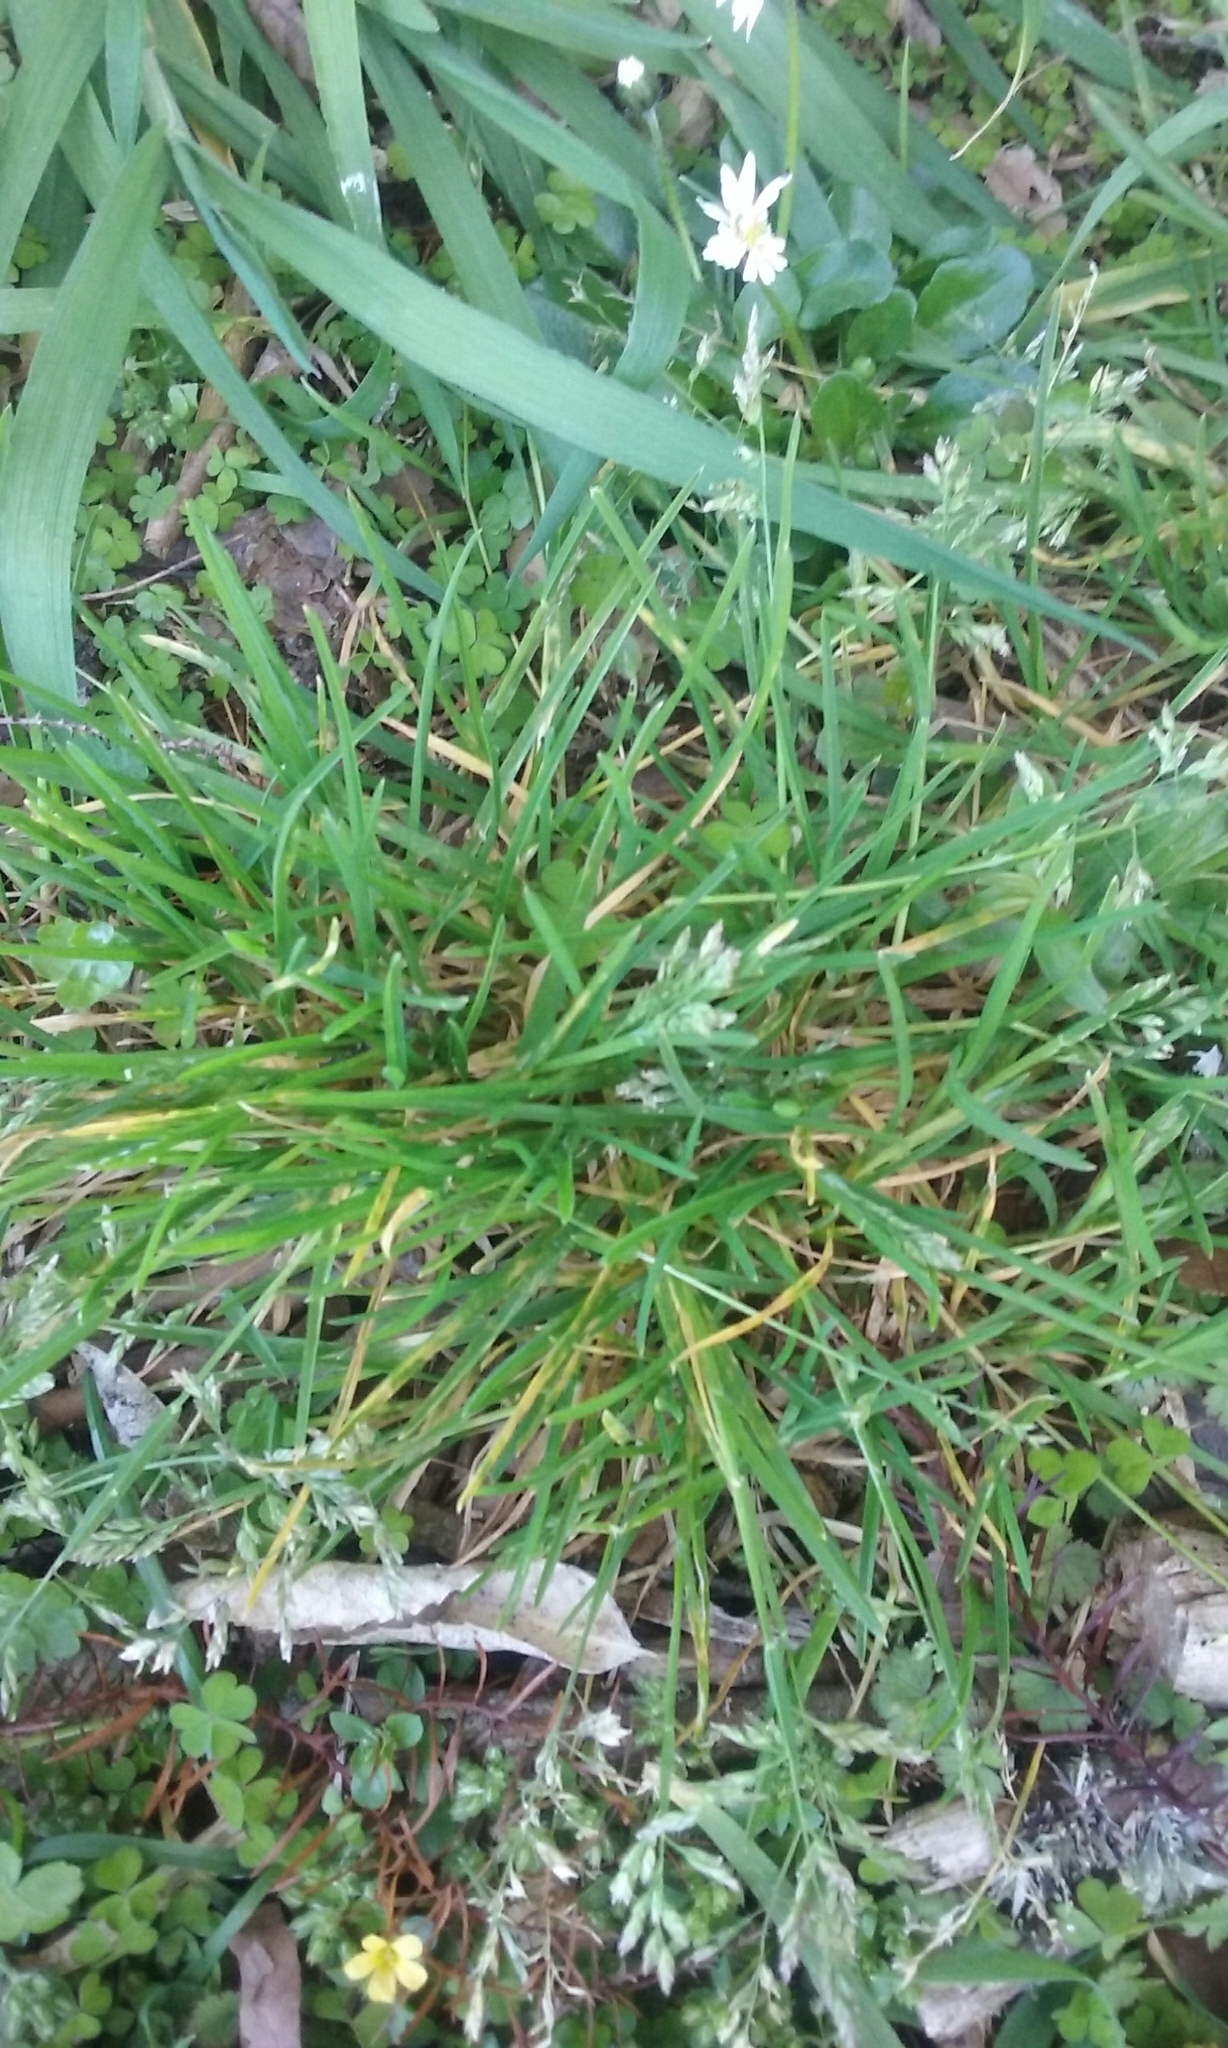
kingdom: Plantae
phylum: Tracheophyta
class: Liliopsida
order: Poales
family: Poaceae
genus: Poa
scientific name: Poa annua
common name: Annual bluegrass
